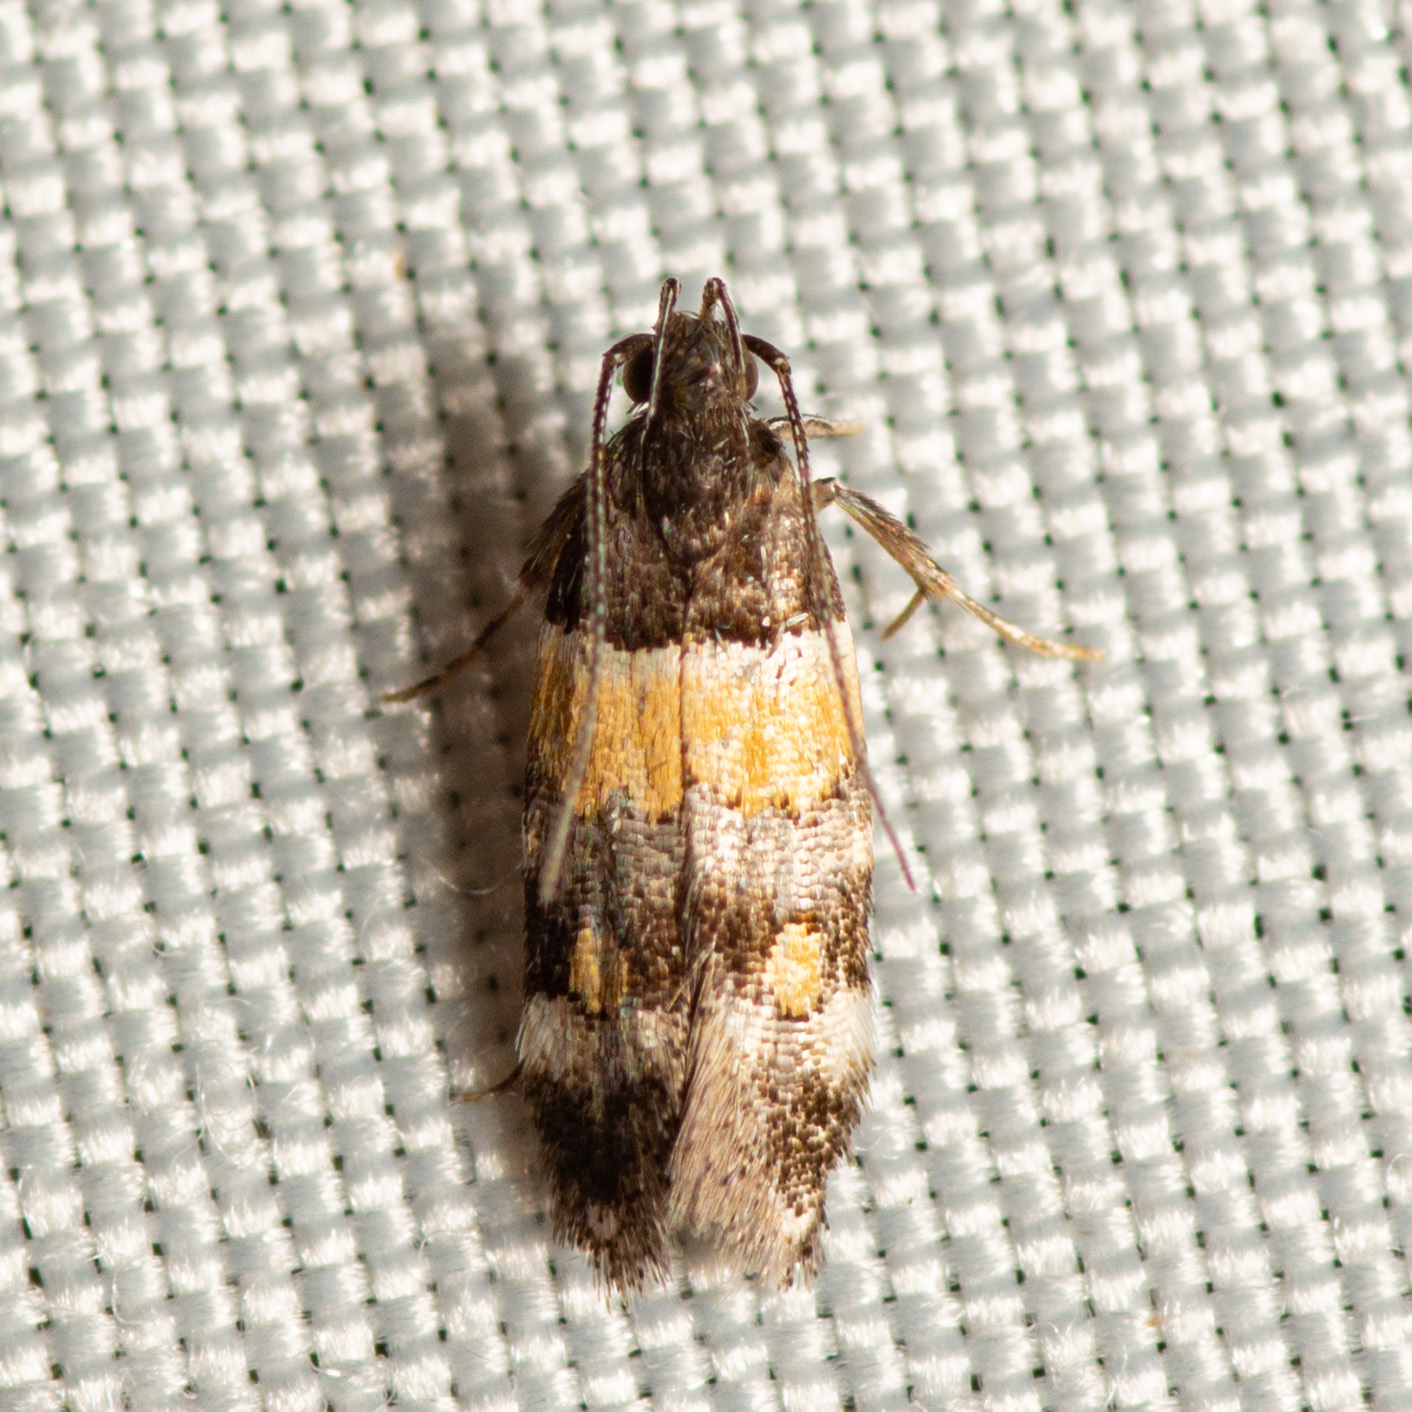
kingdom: Animalia
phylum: Arthropoda
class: Insecta
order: Lepidoptera
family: Momphidae
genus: Triclonella
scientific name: Triclonella determinatella
